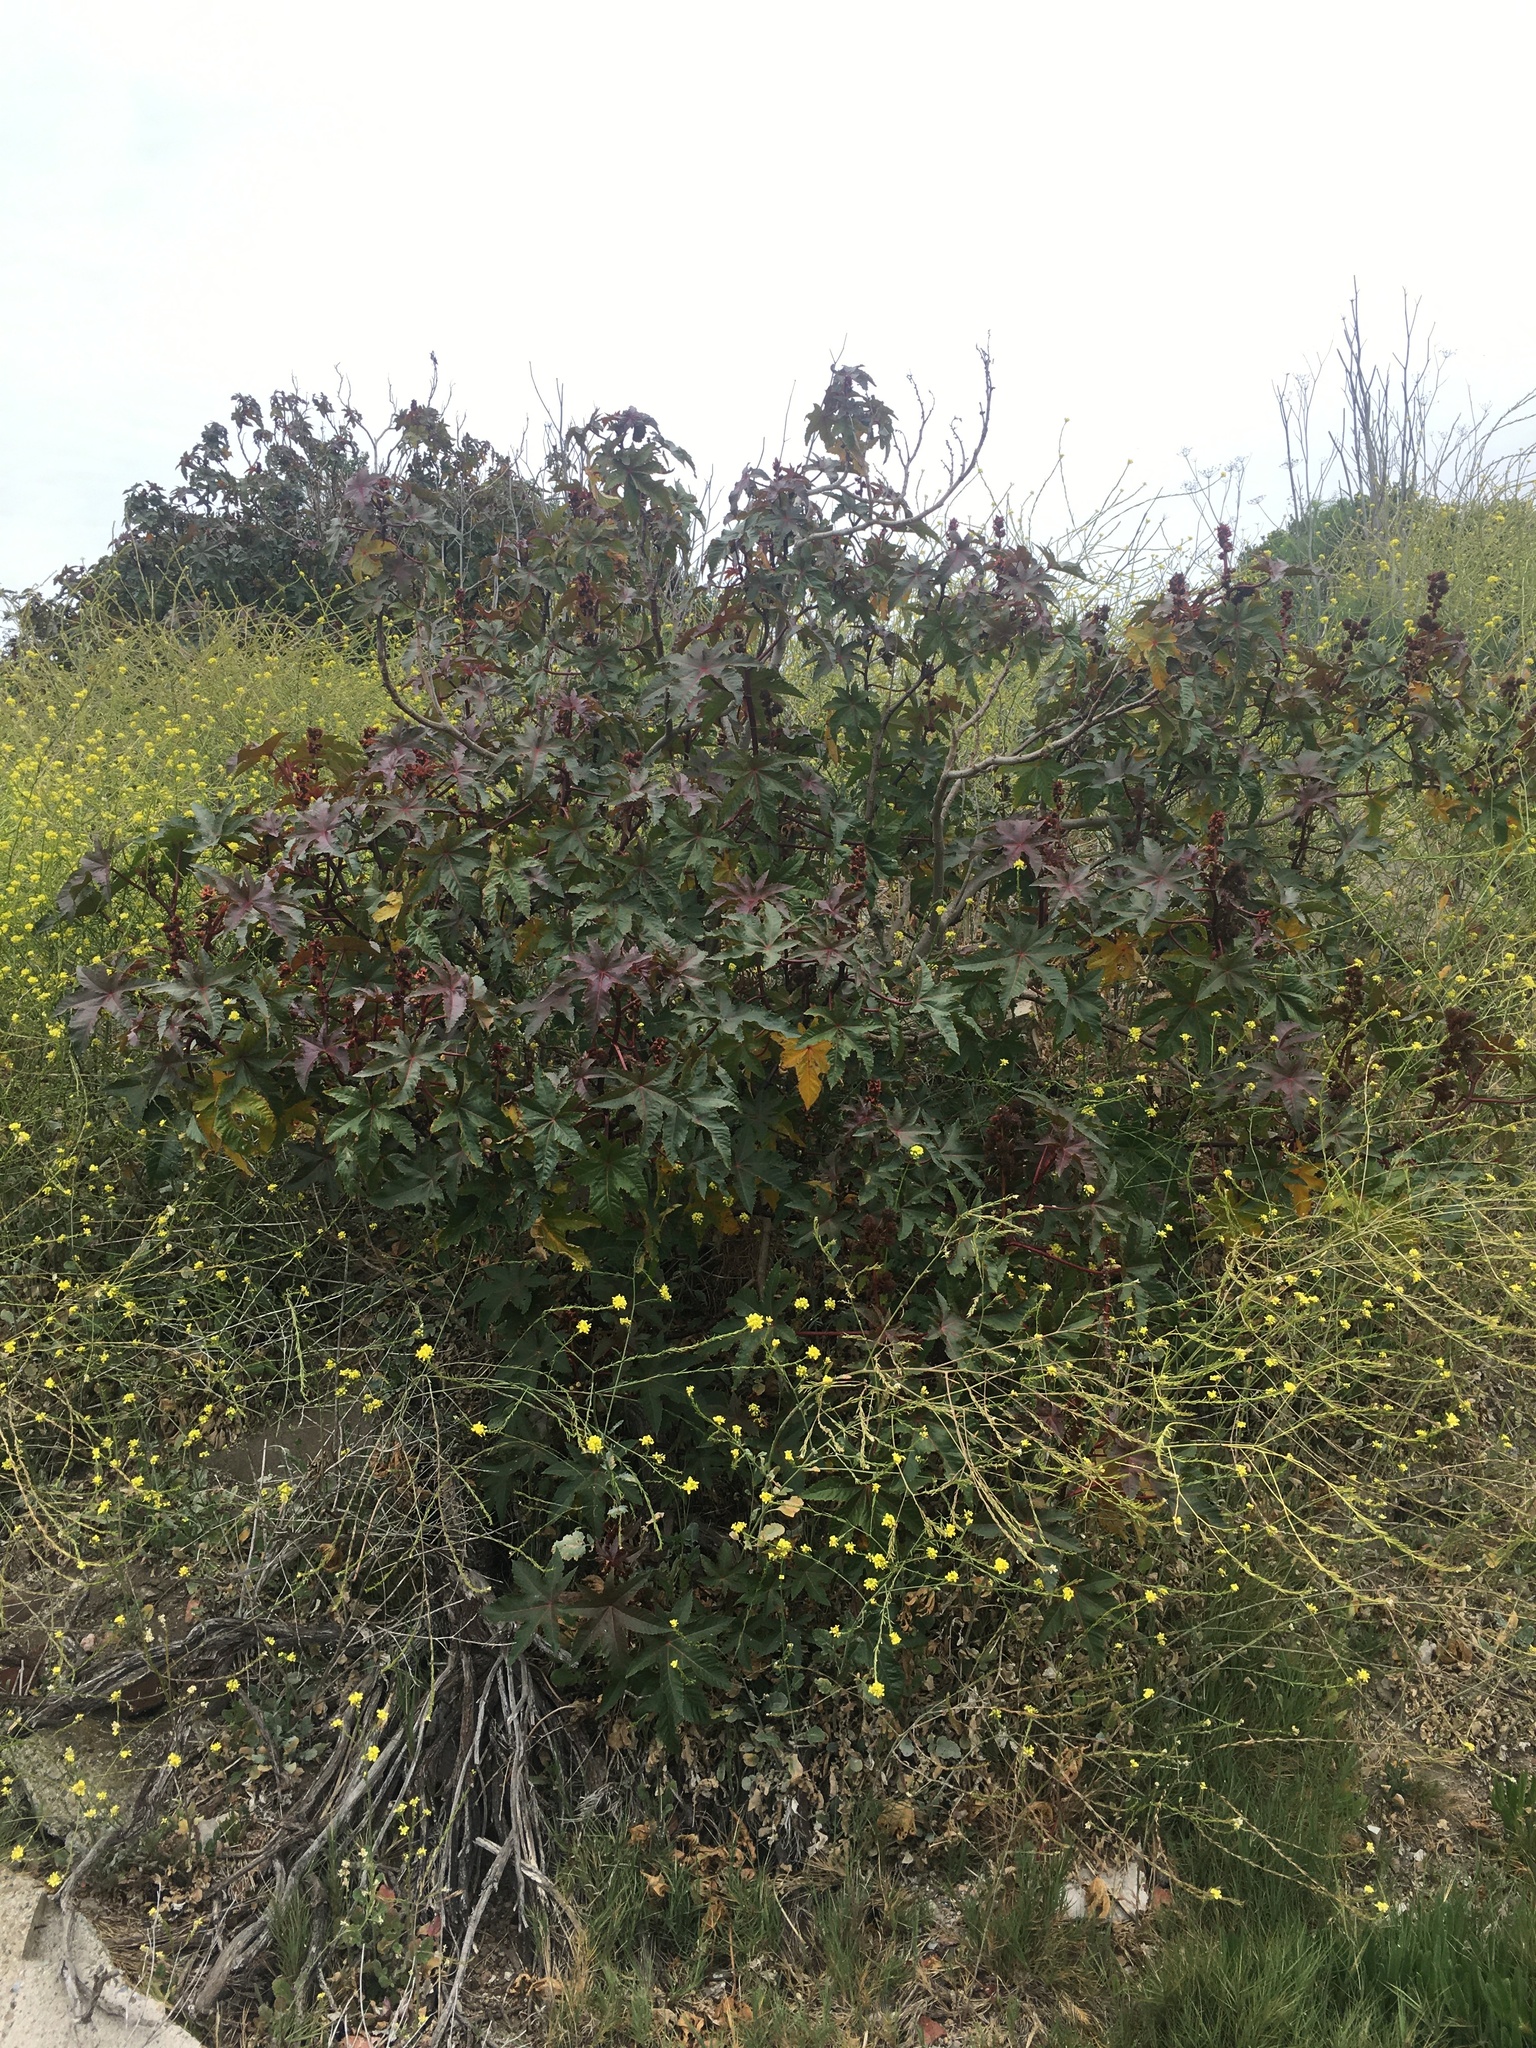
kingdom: Plantae
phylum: Tracheophyta
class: Magnoliopsida
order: Malpighiales
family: Euphorbiaceae
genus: Ricinus
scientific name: Ricinus communis
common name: Castor-oil-plant
